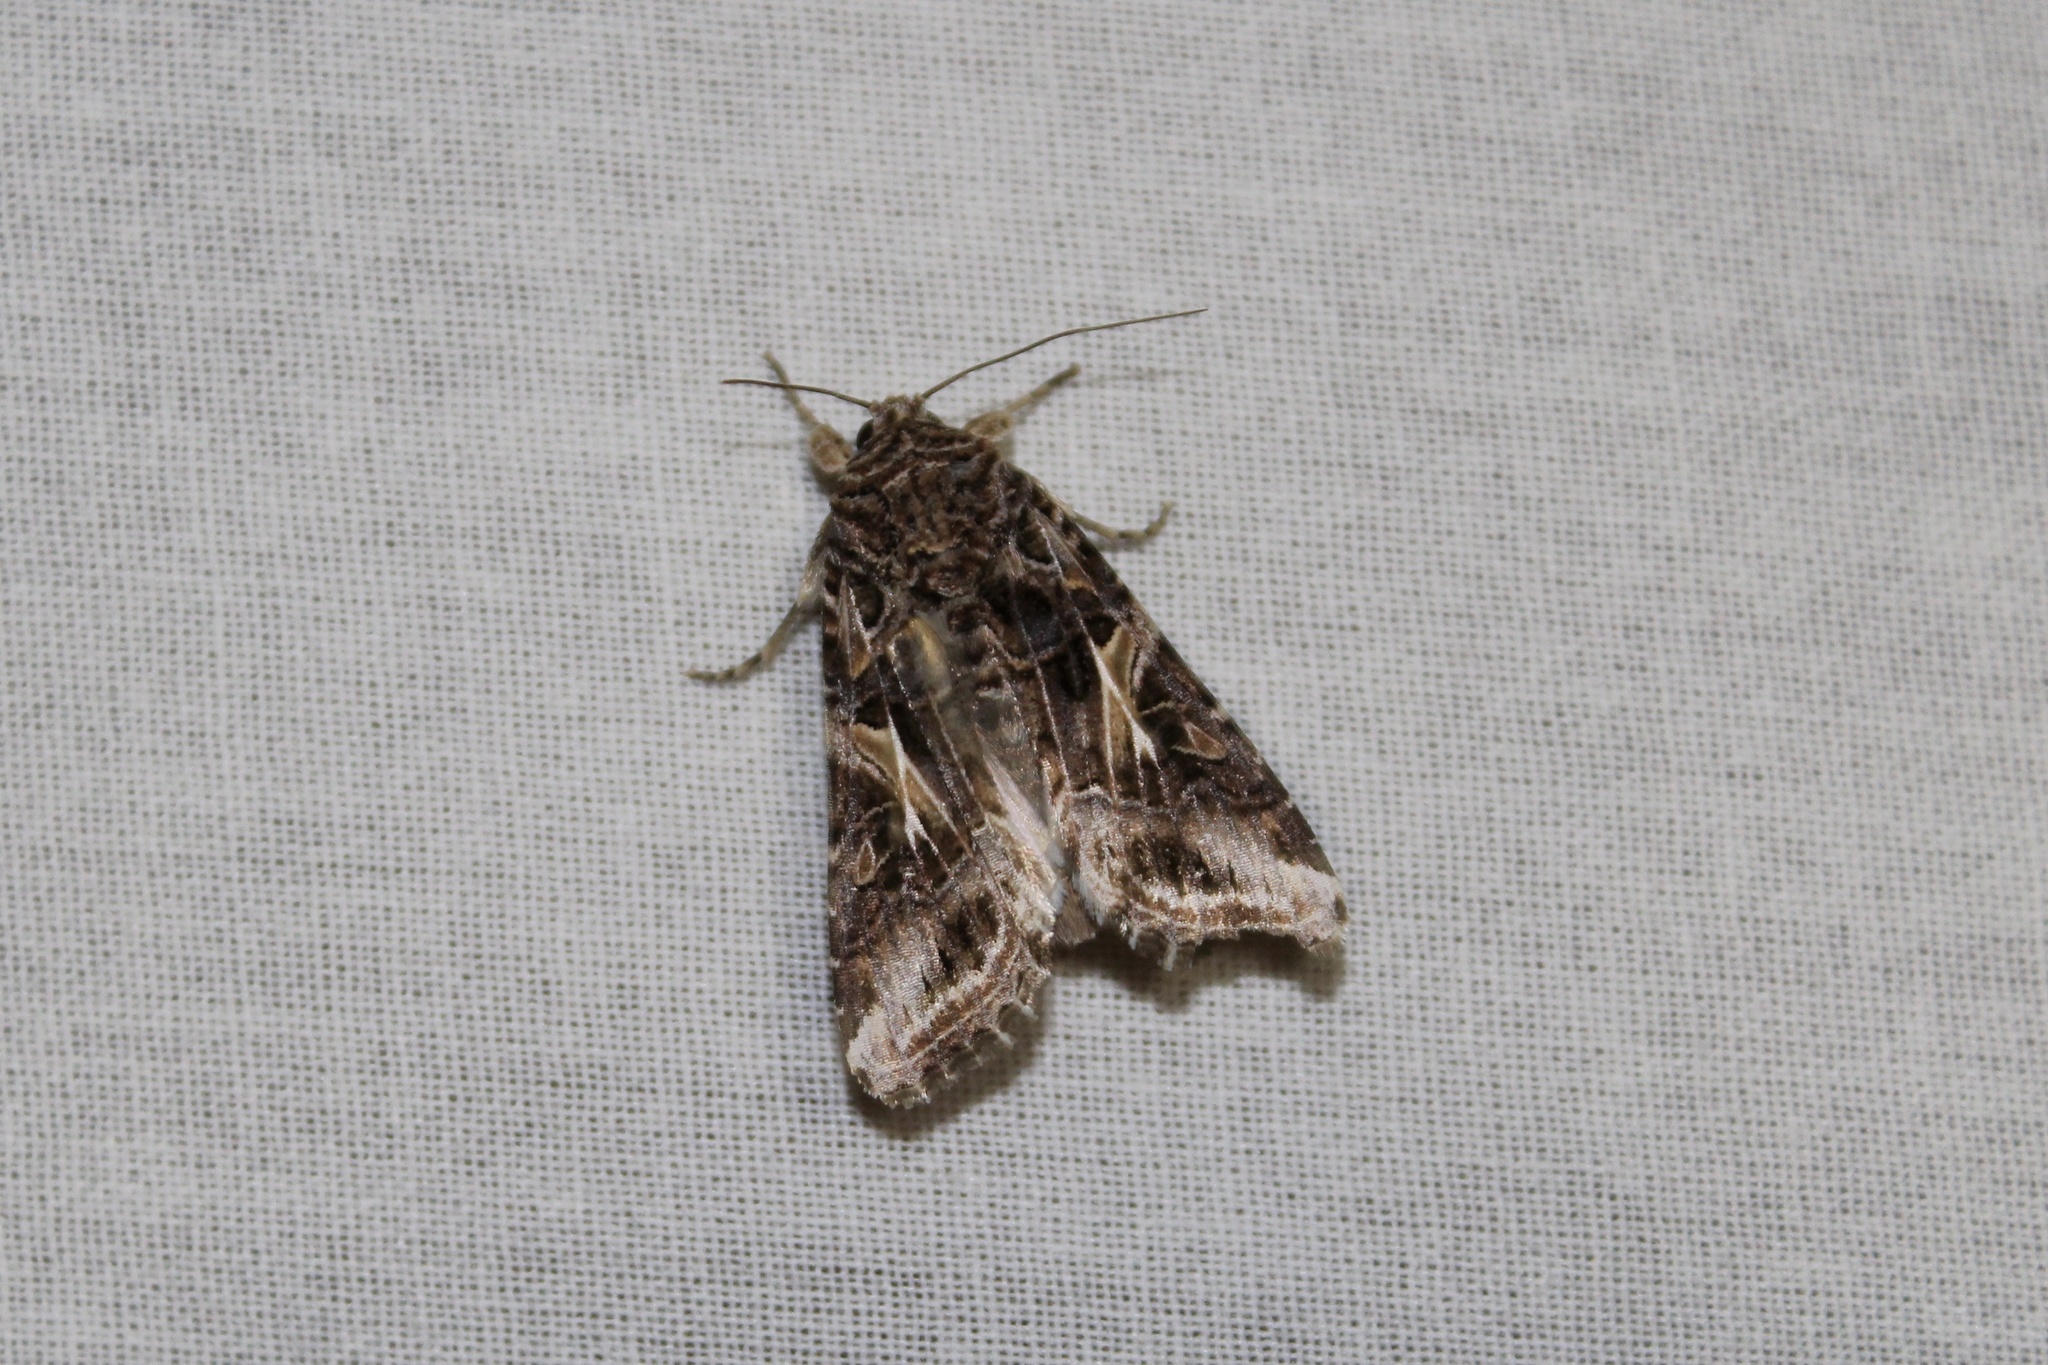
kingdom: Animalia
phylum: Arthropoda
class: Insecta
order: Lepidoptera
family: Noctuidae
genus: Spodoptera
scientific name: Spodoptera ornithogalli
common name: Yellow-striped armyworm
